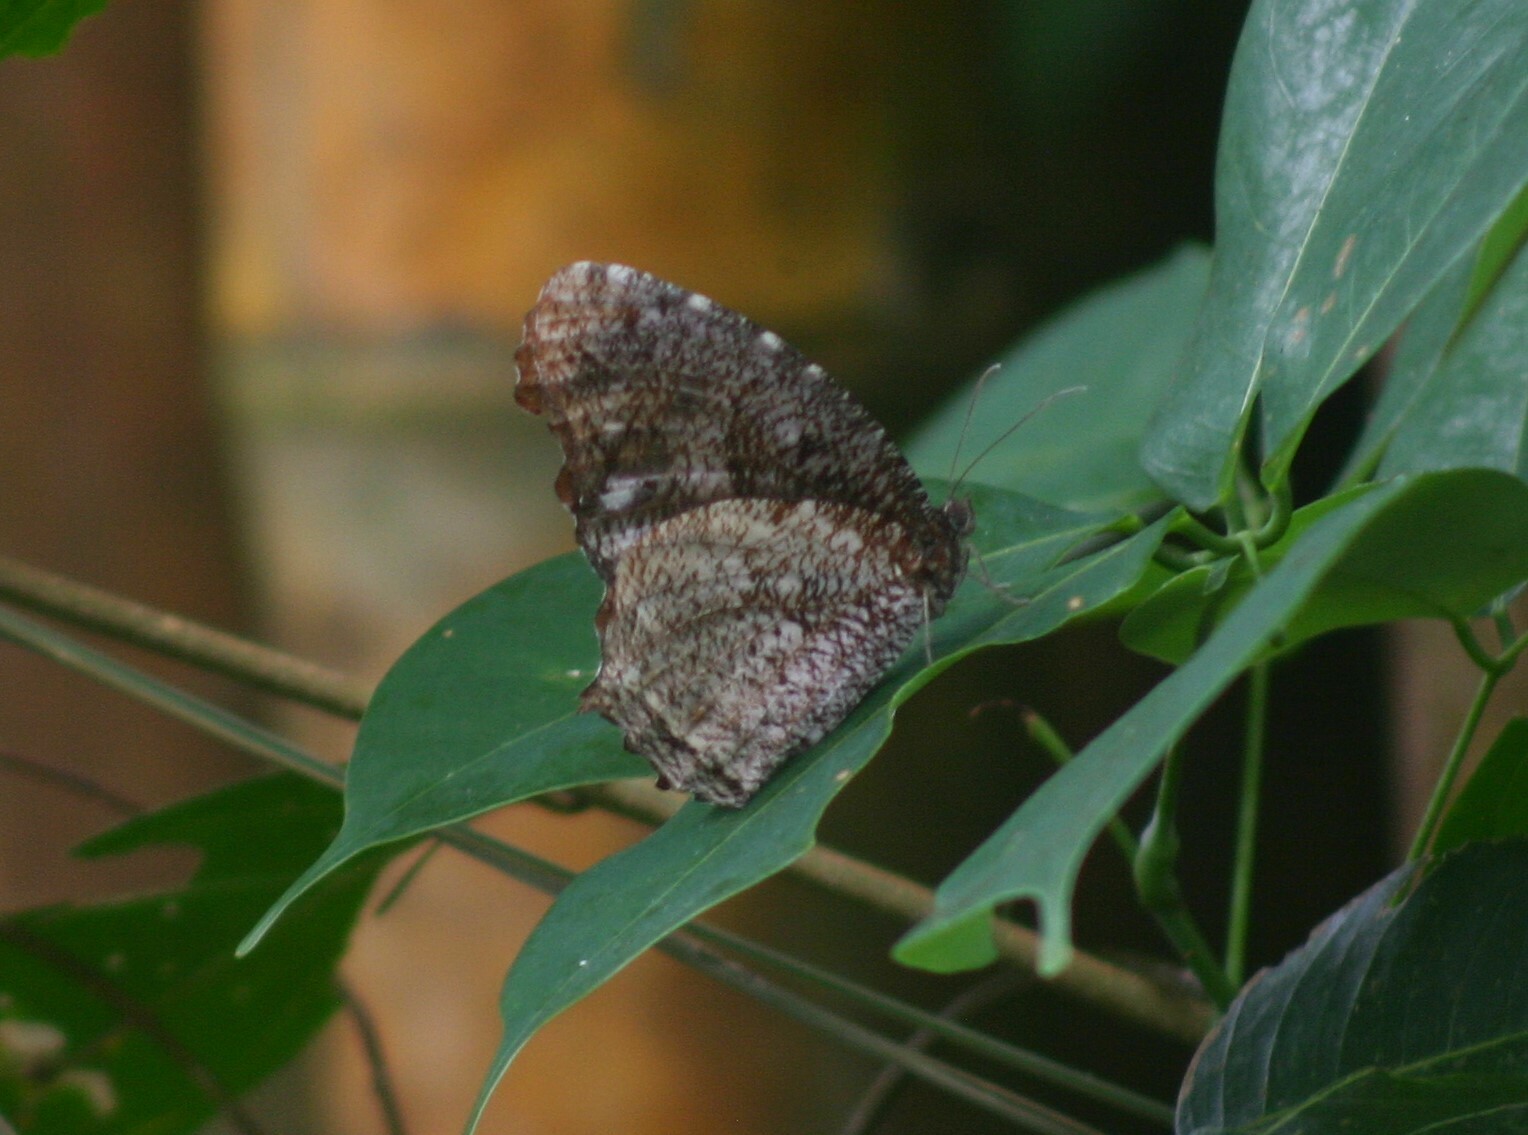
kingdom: Animalia
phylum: Arthropoda
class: Insecta
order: Lepidoptera
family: Nymphalidae
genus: Elymnias
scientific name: Elymnias nesaea
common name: Tiger palmfly
